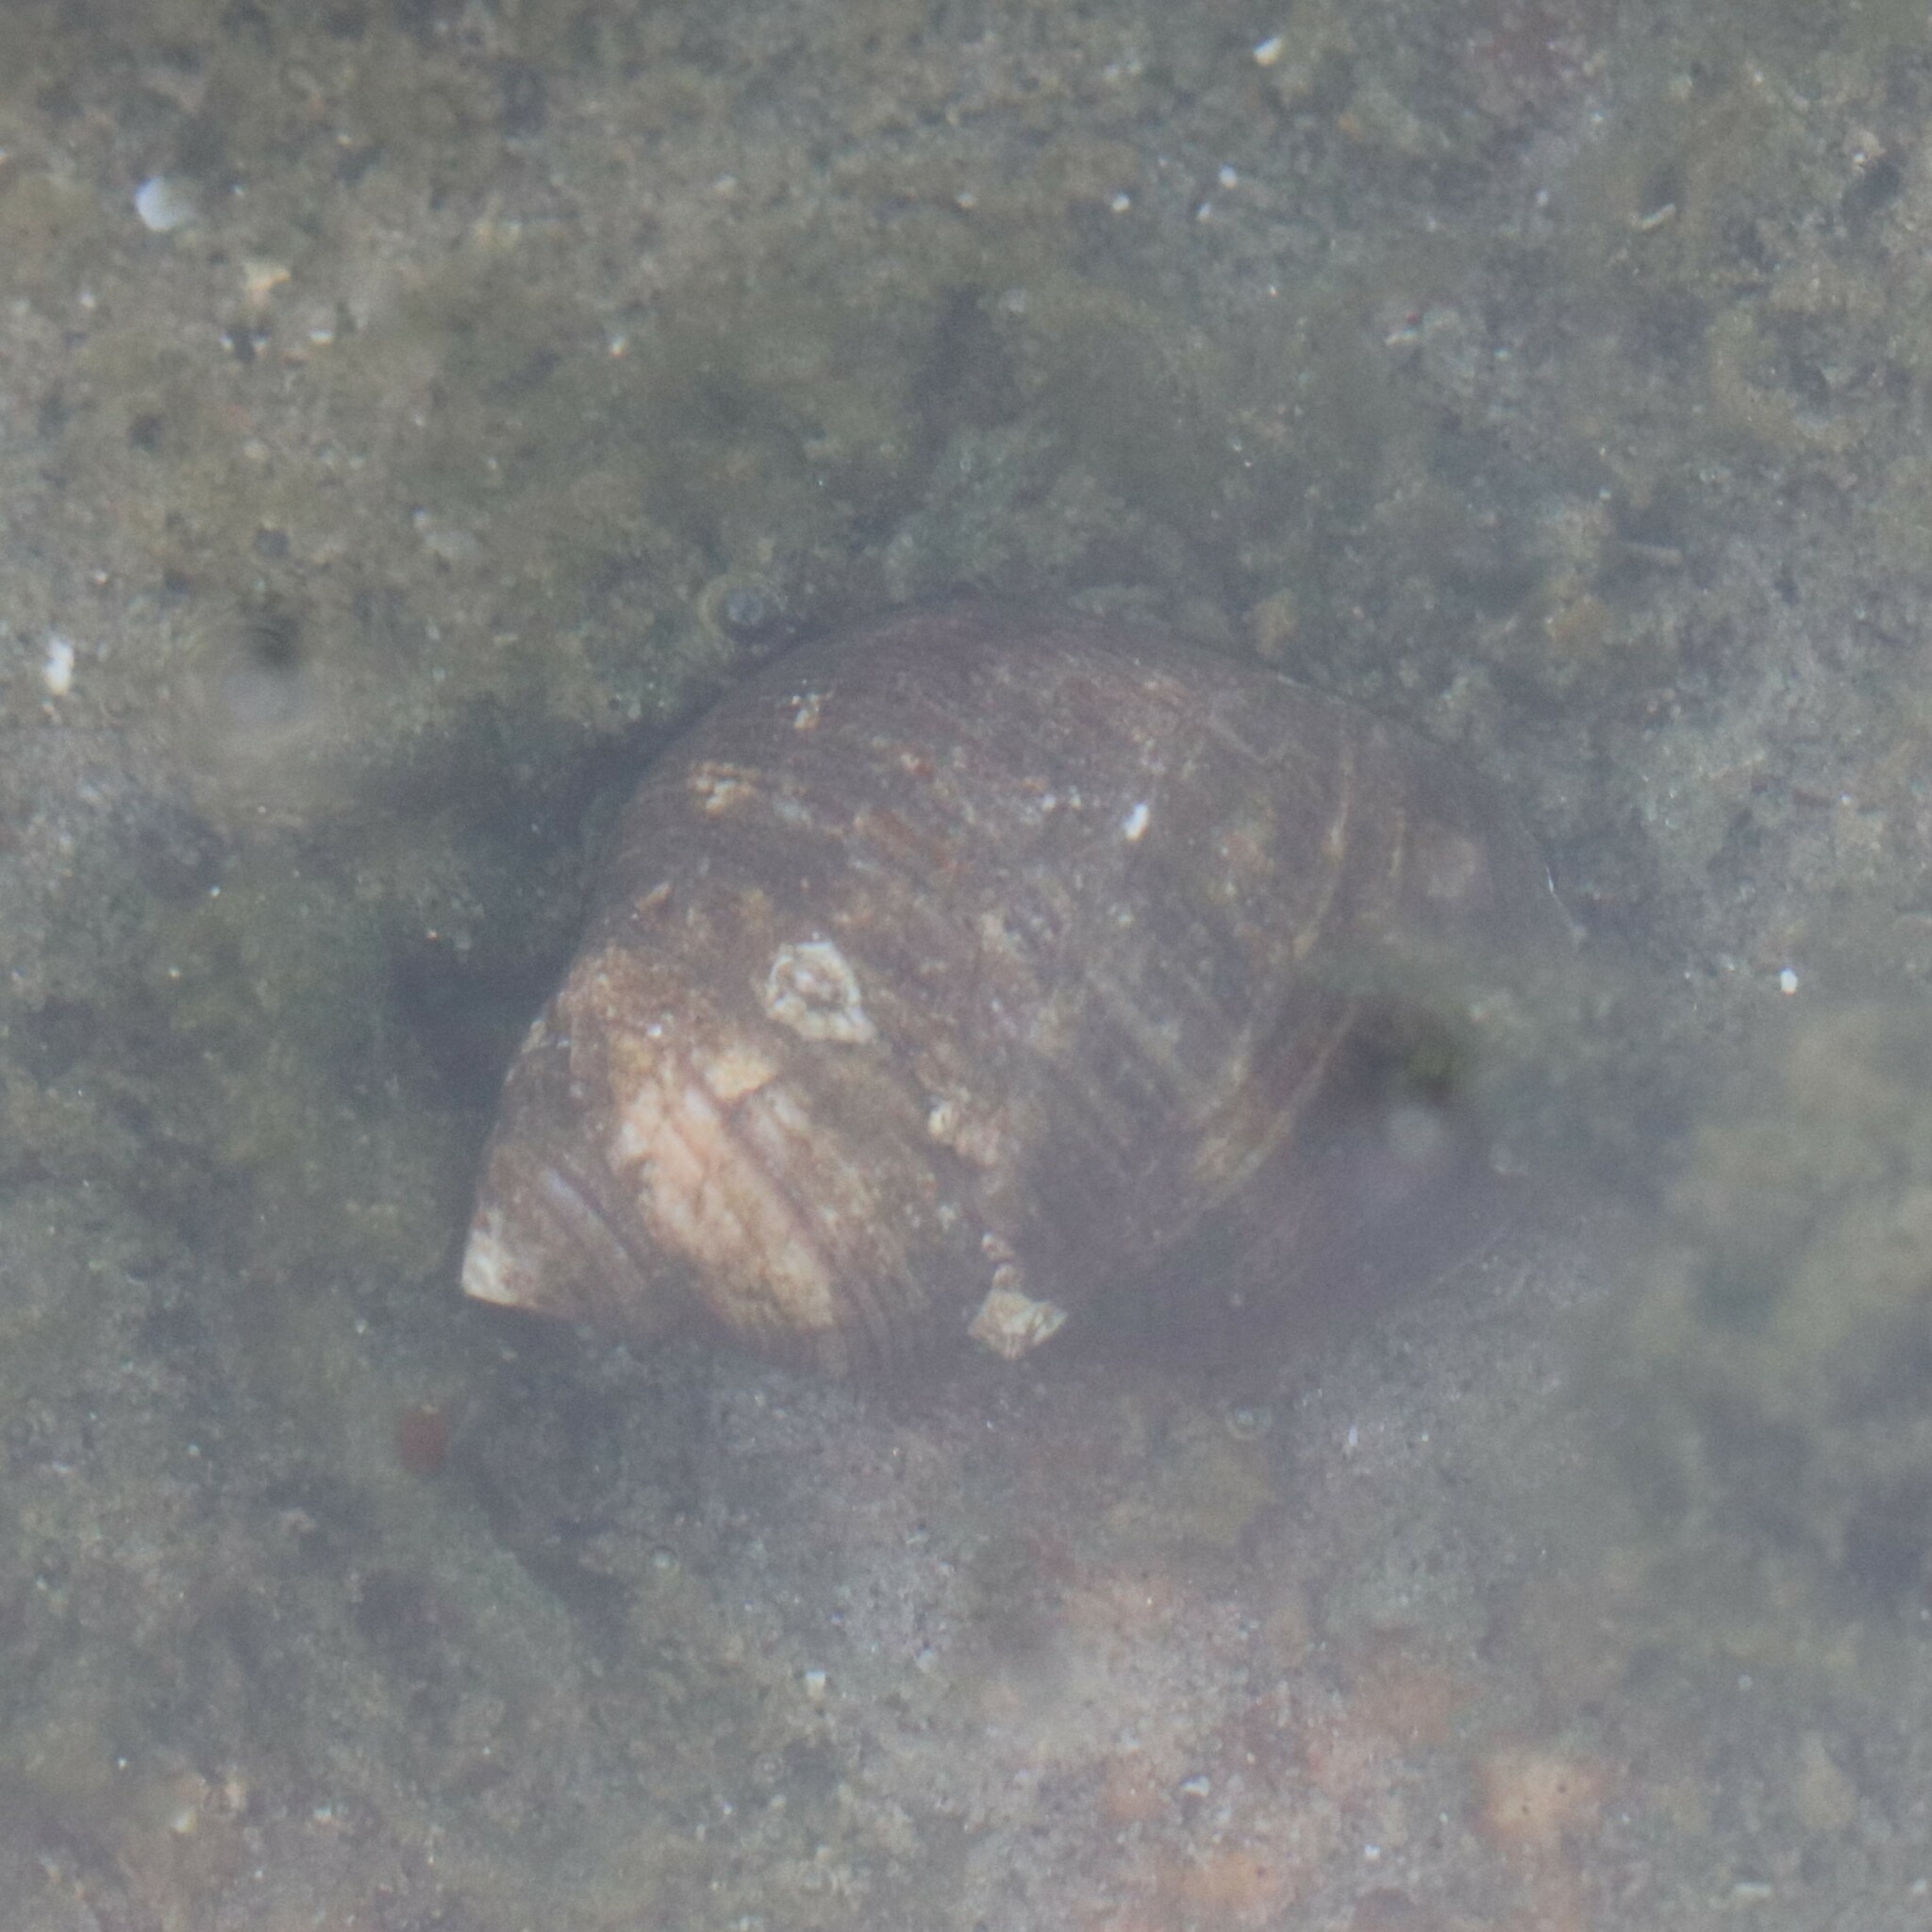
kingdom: Animalia
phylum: Mollusca
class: Gastropoda
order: Littorinimorpha
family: Littorinidae
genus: Littorina
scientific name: Littorina littorea
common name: Common periwinkle
